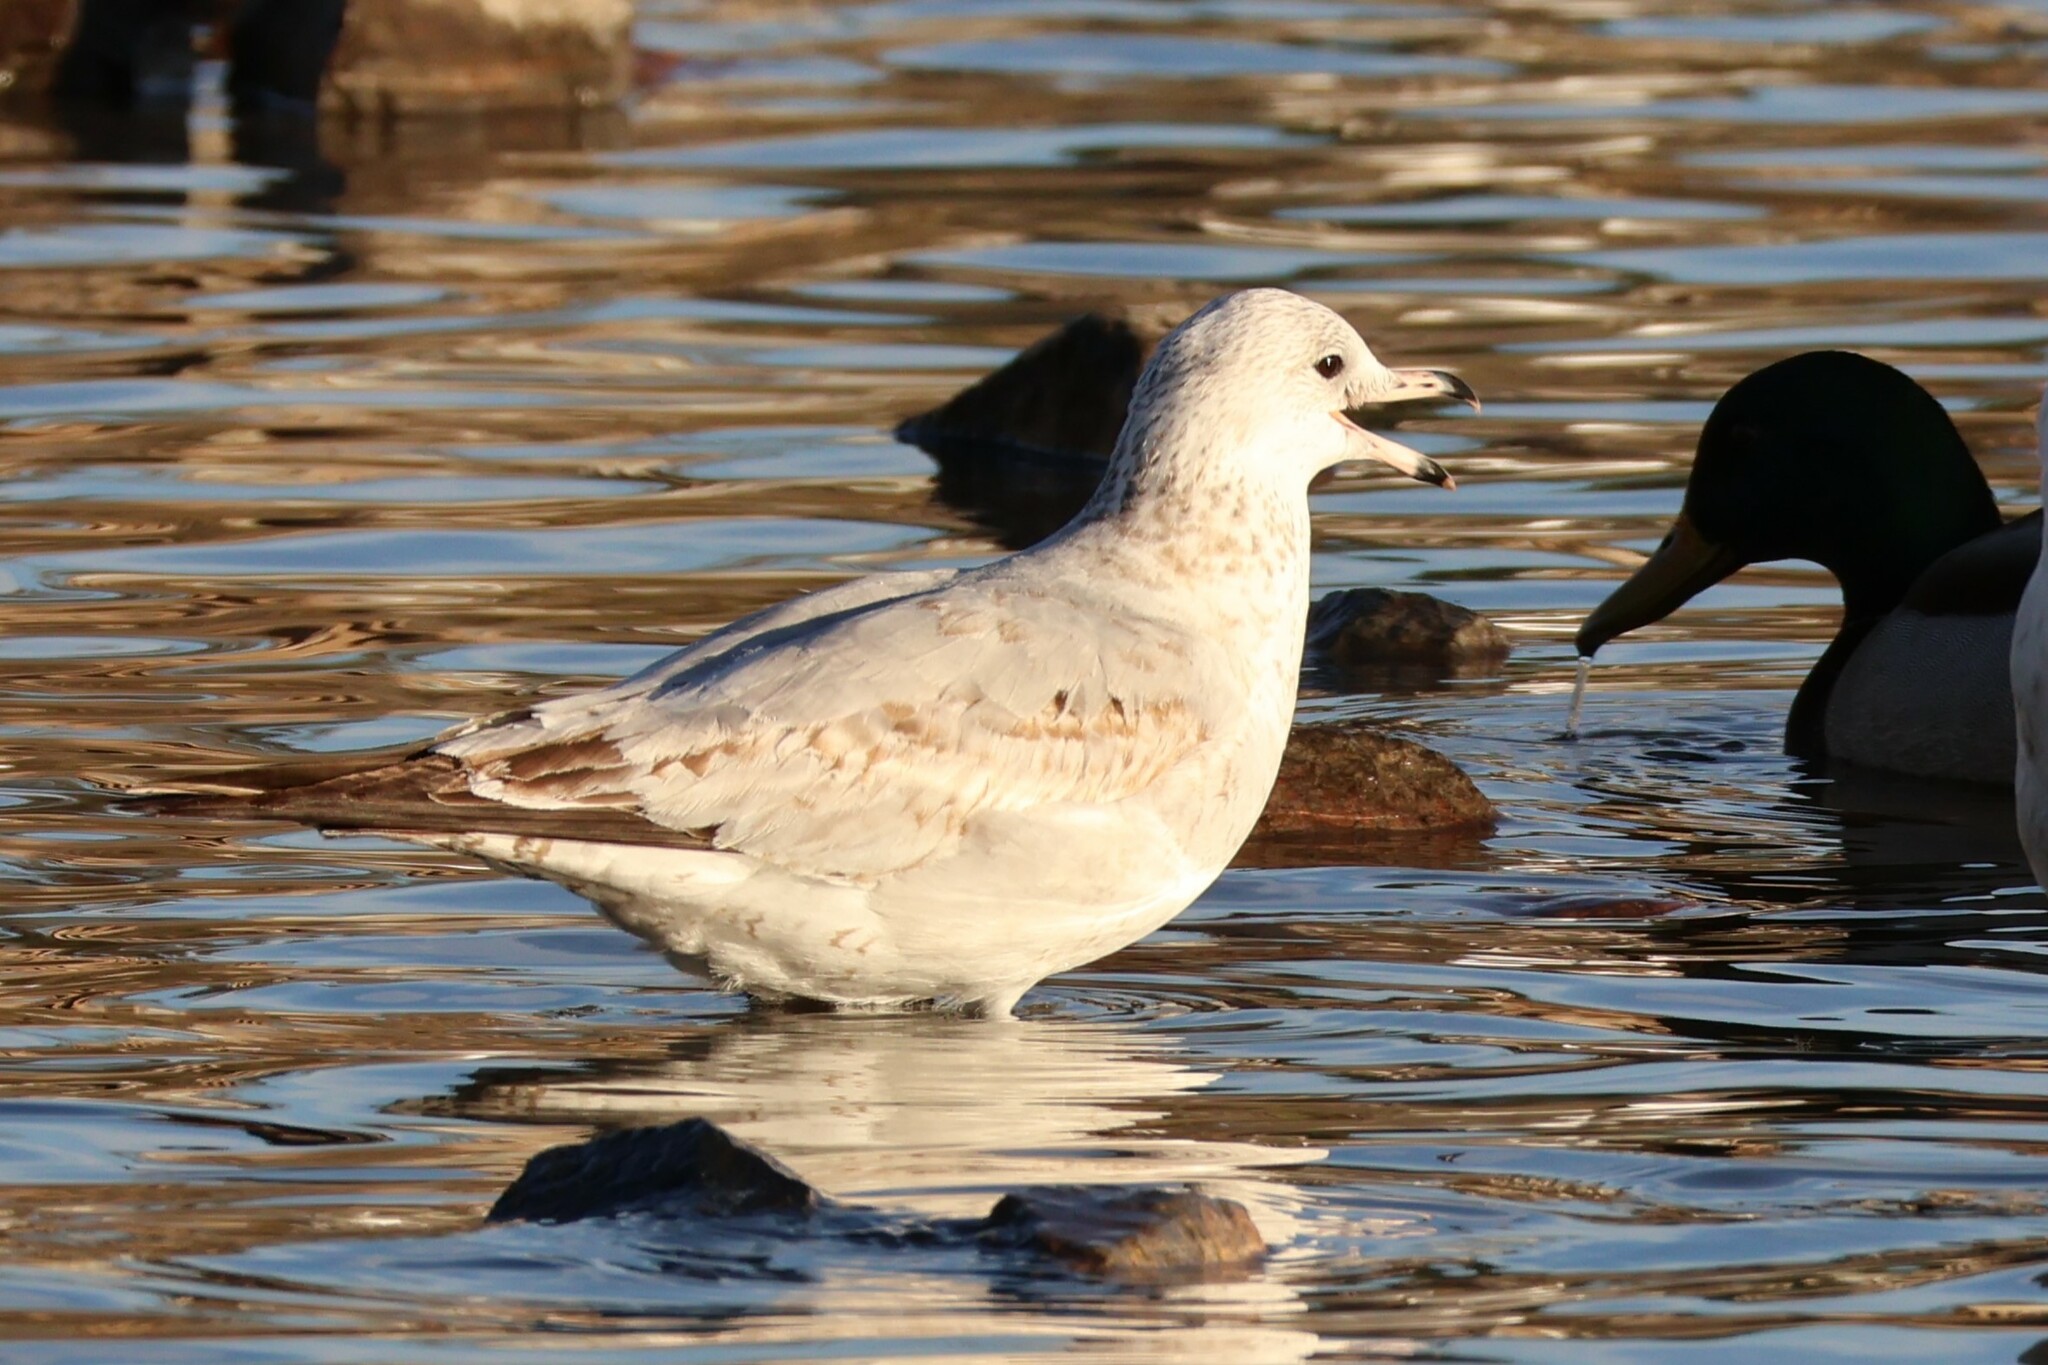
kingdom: Animalia
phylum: Chordata
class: Aves
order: Charadriiformes
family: Laridae
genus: Larus
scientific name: Larus delawarensis
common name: Ring-billed gull
